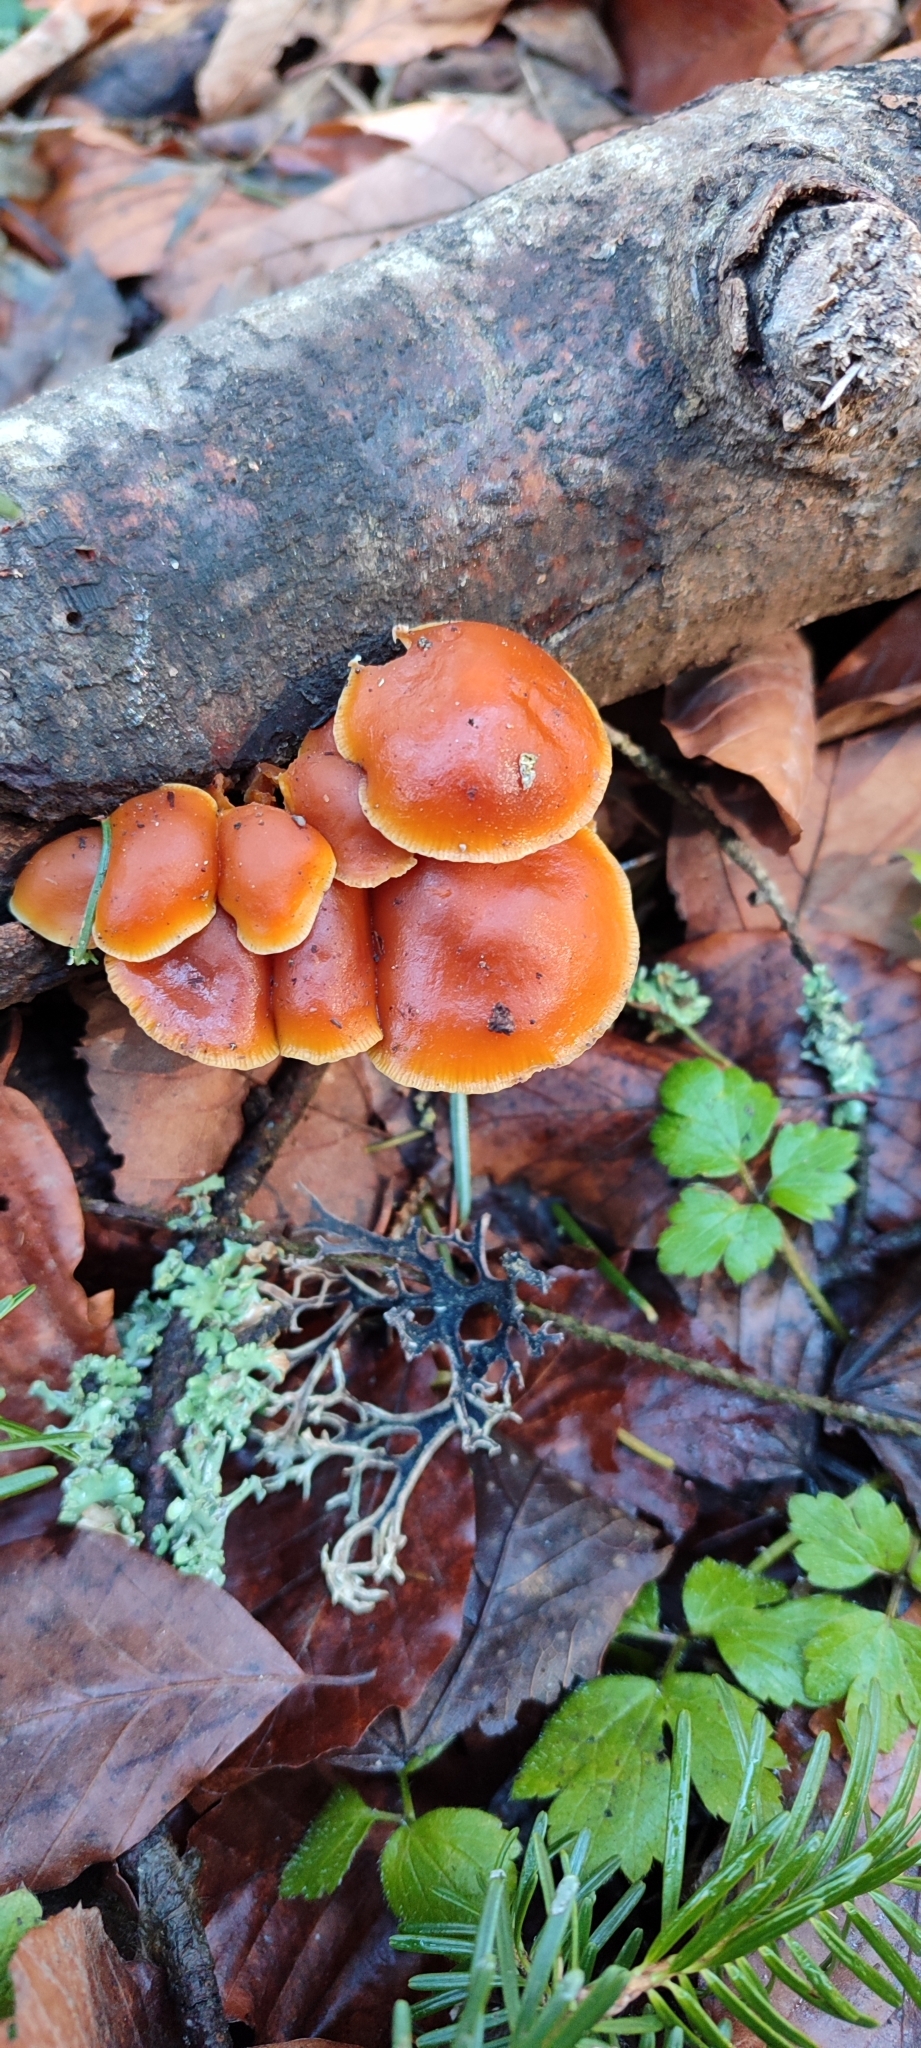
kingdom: Fungi
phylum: Basidiomycota
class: Agaricomycetes
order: Agaricales
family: Physalacriaceae
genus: Flammulina
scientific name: Flammulina
